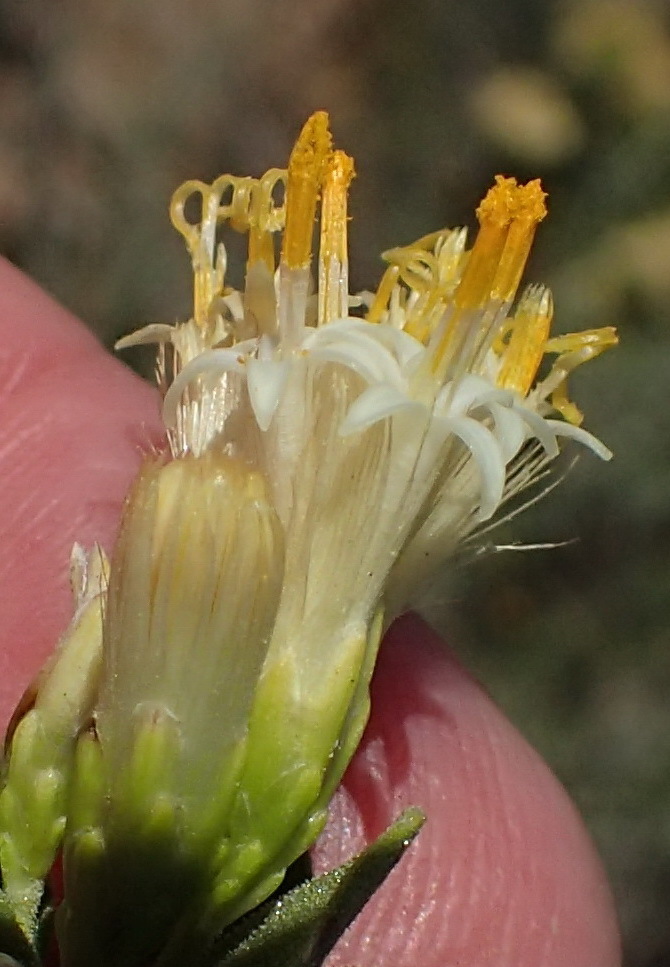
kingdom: Plantae
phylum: Tracheophyta
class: Magnoliopsida
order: Asterales
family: Asteraceae
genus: Pteronia
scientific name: Pteronia divaricata
